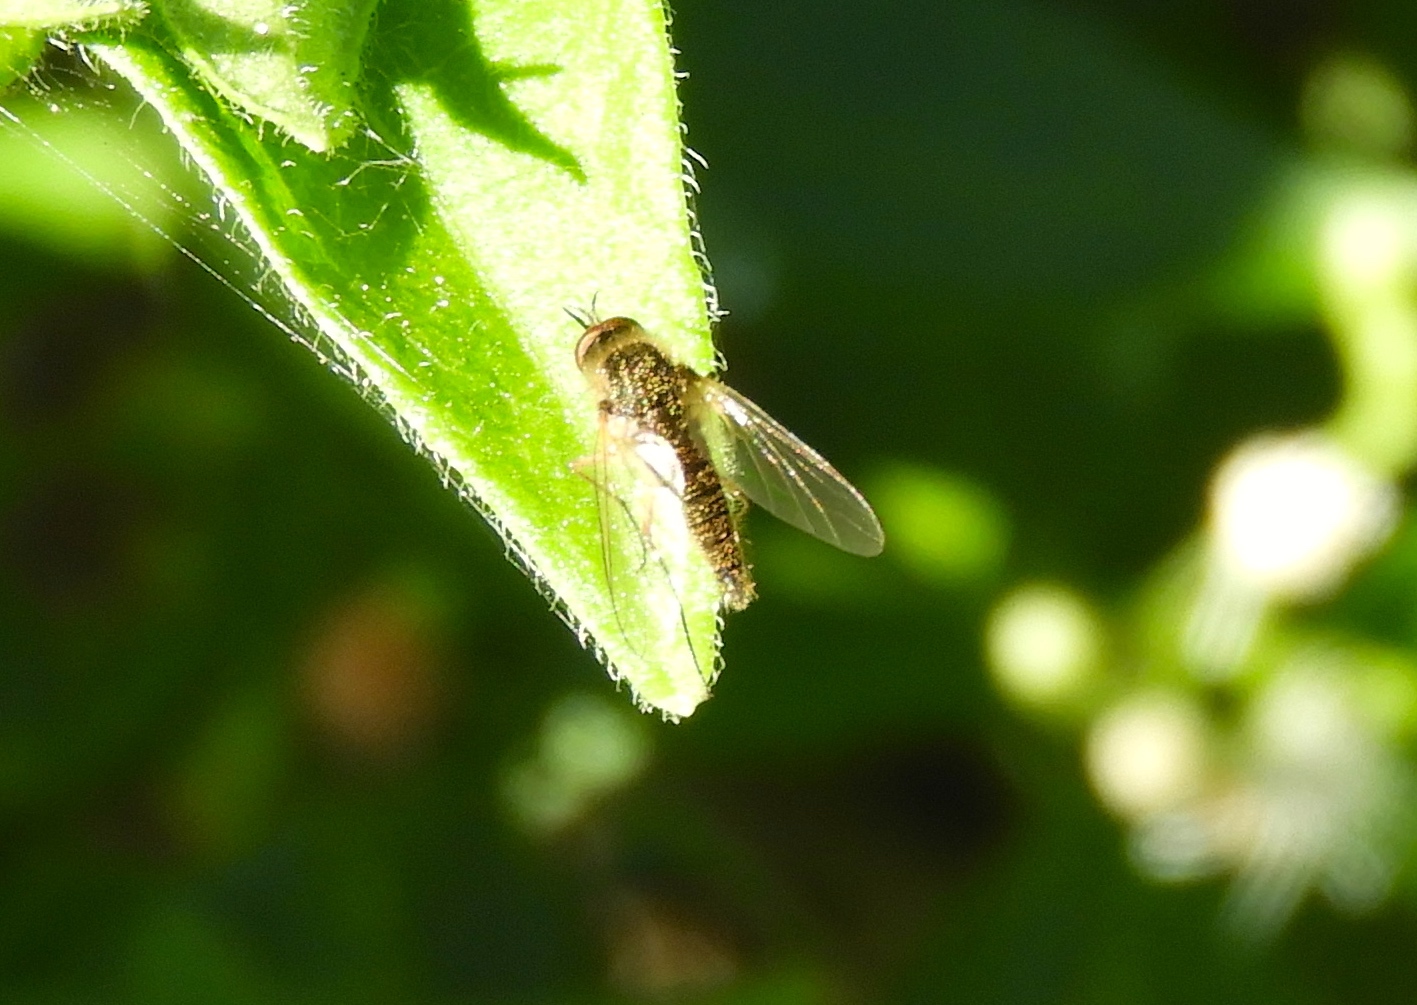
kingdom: Animalia
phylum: Arthropoda
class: Insecta
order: Diptera
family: Bombyliidae
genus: Geron
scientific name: Geron
